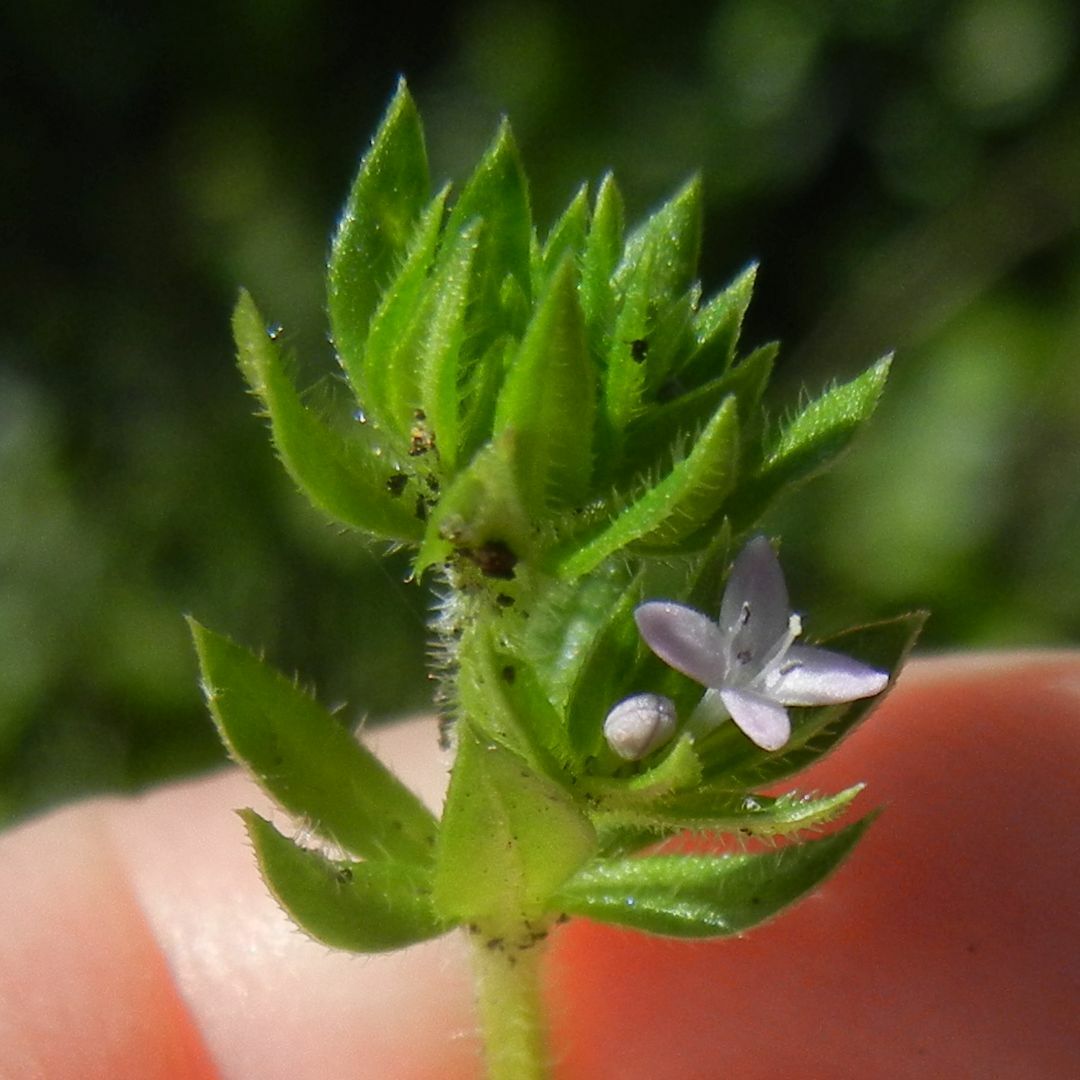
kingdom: Plantae
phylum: Tracheophyta
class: Magnoliopsida
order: Gentianales
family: Rubiaceae
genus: Sherardia
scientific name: Sherardia arvensis
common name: Field madder
